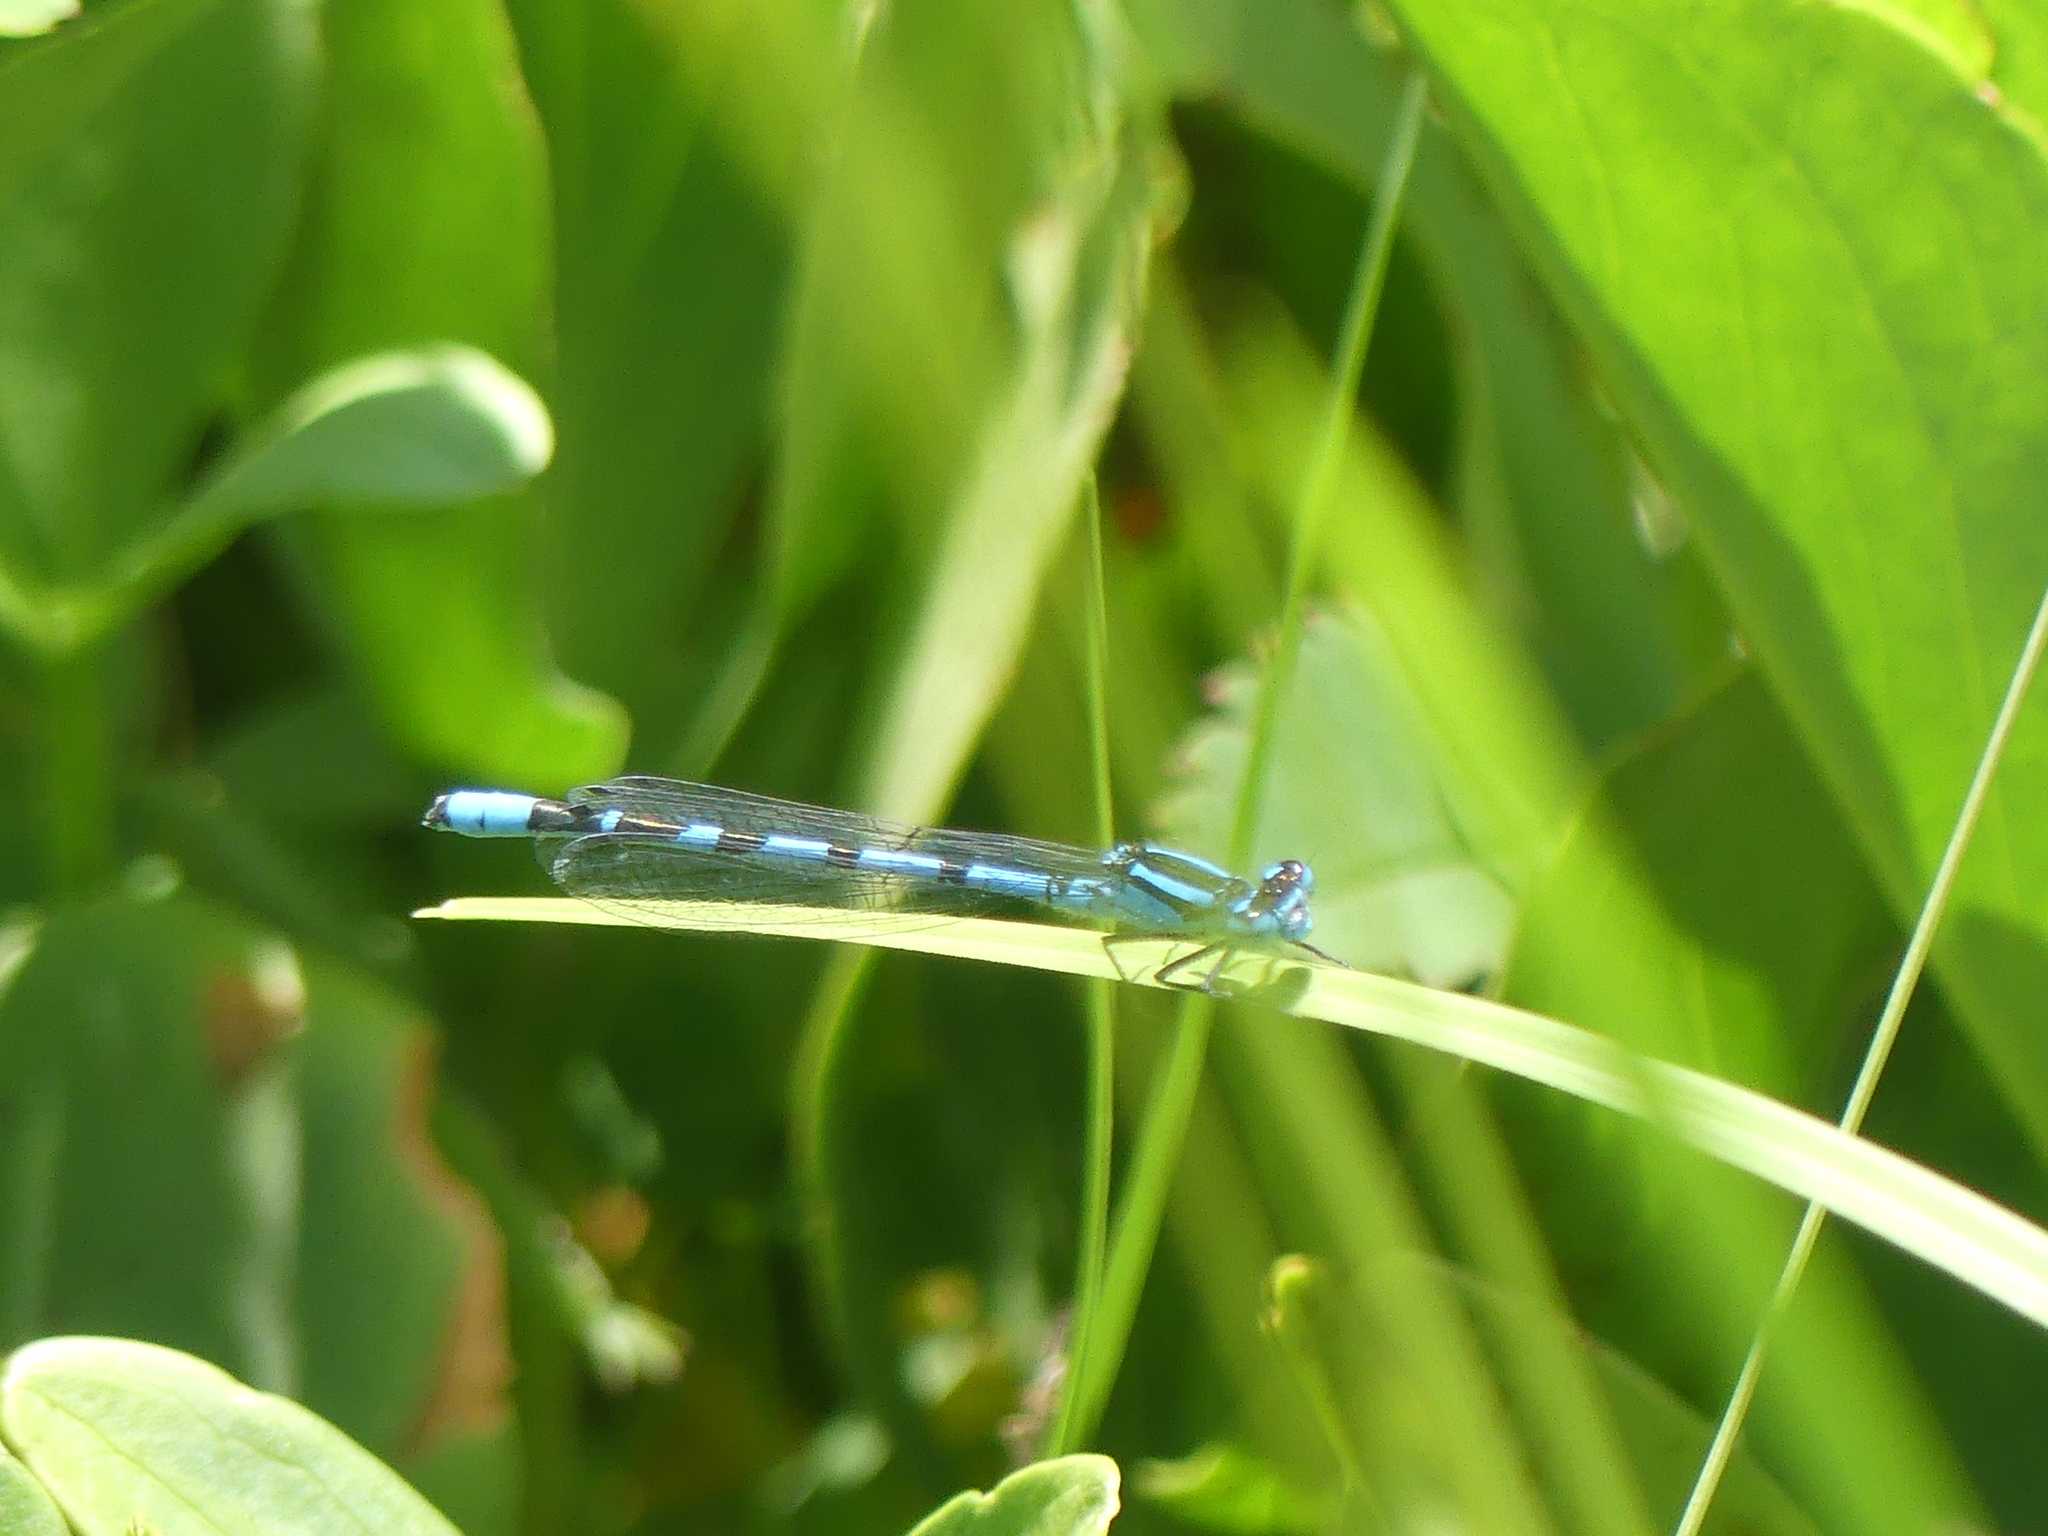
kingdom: Animalia
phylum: Arthropoda
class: Insecta
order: Odonata
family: Coenagrionidae
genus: Enallagma
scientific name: Enallagma cyathigerum
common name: Common blue damselfly
